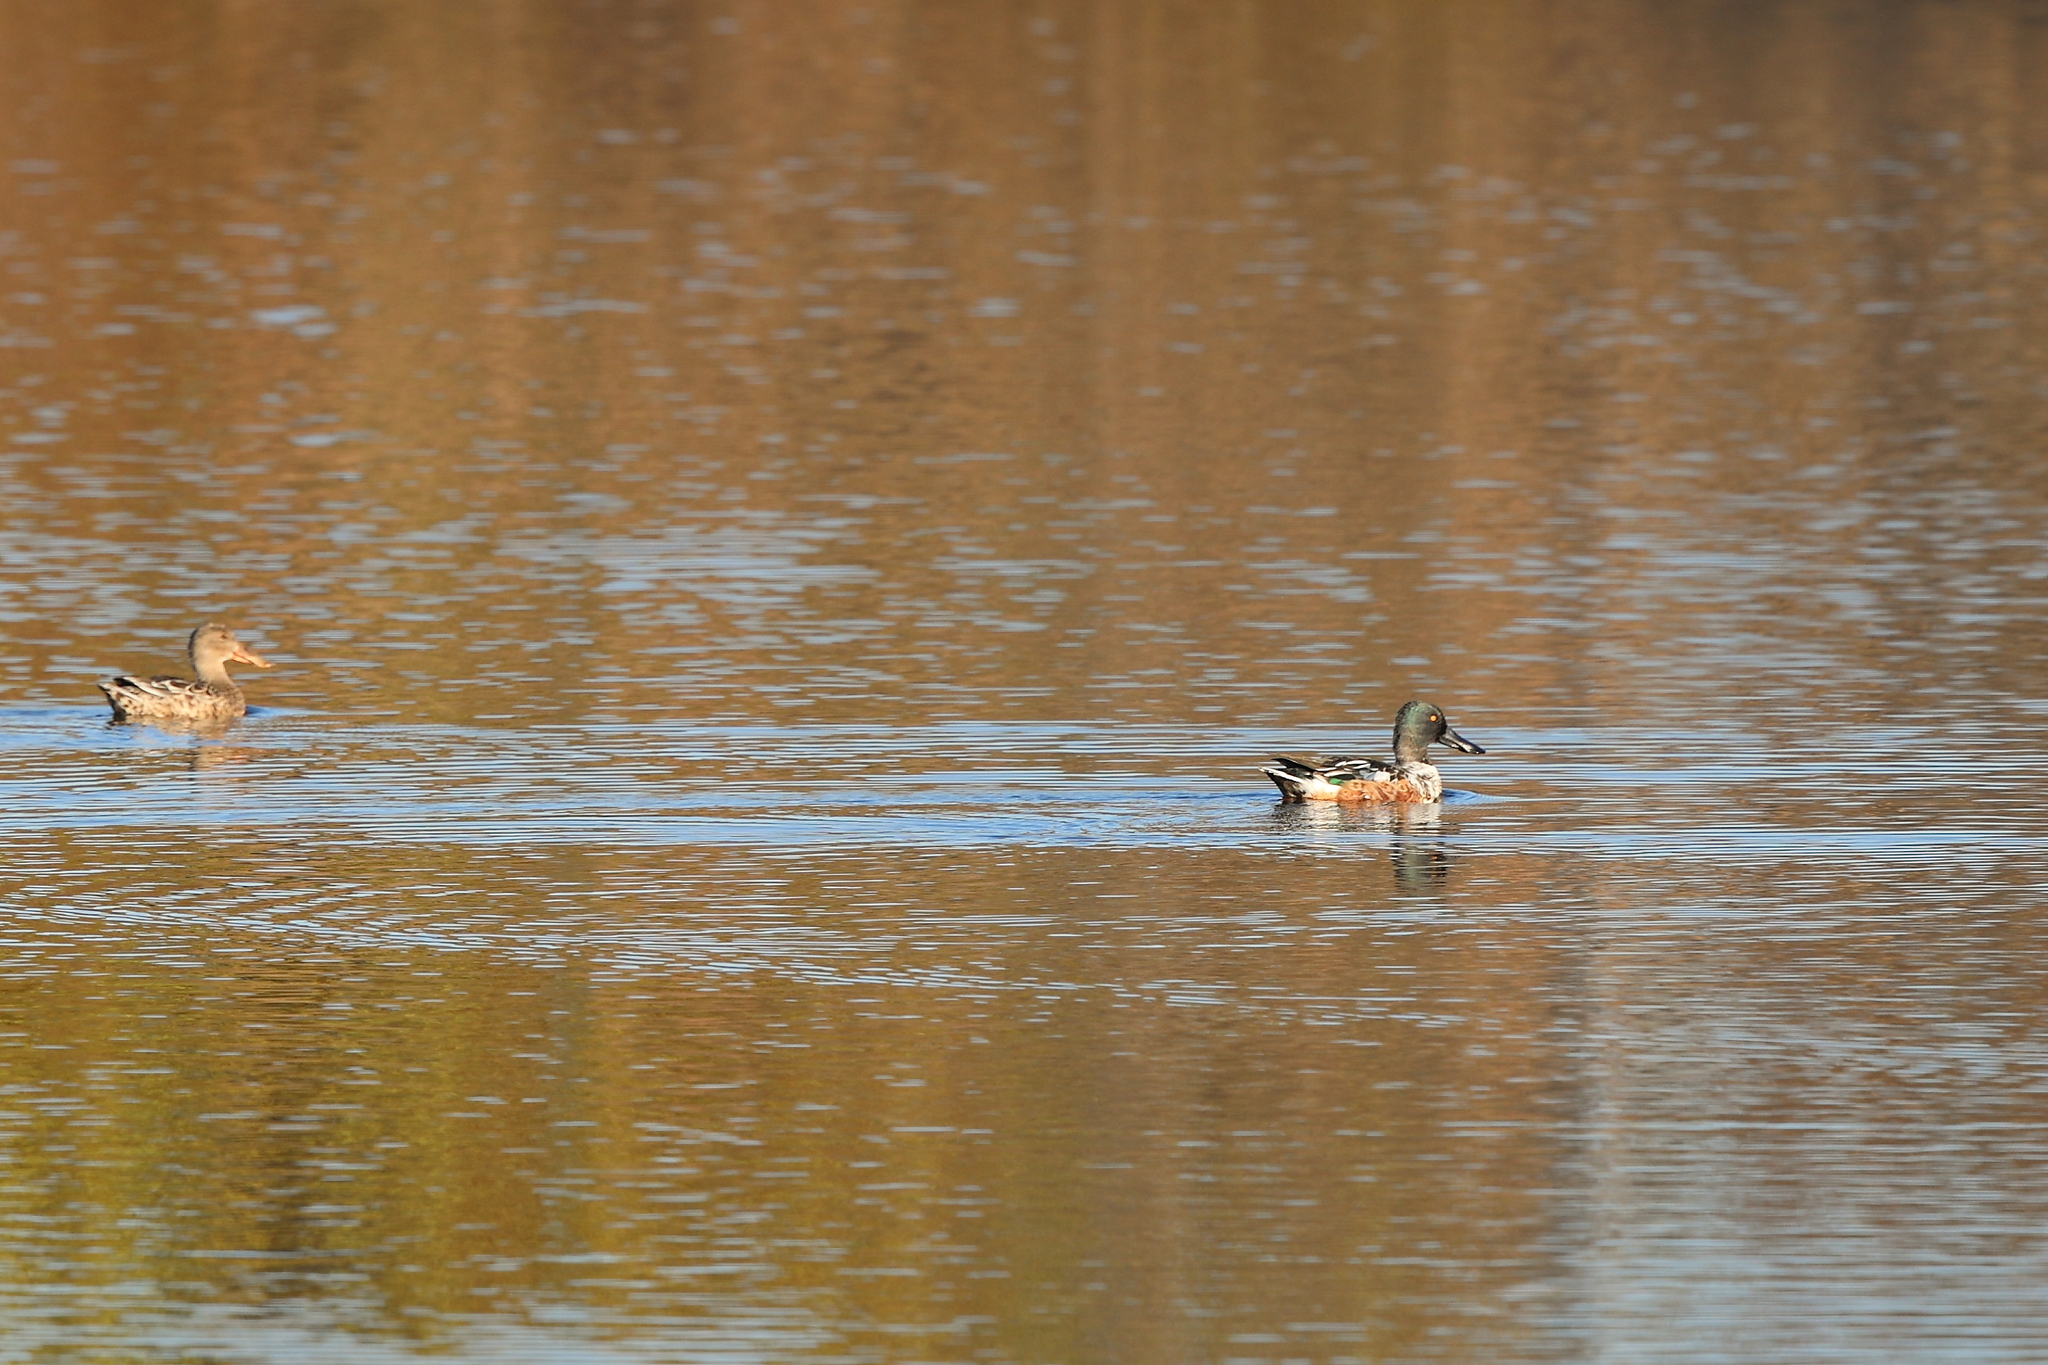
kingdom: Animalia
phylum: Chordata
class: Aves
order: Anseriformes
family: Anatidae
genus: Spatula
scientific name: Spatula clypeata
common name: Northern shoveler
